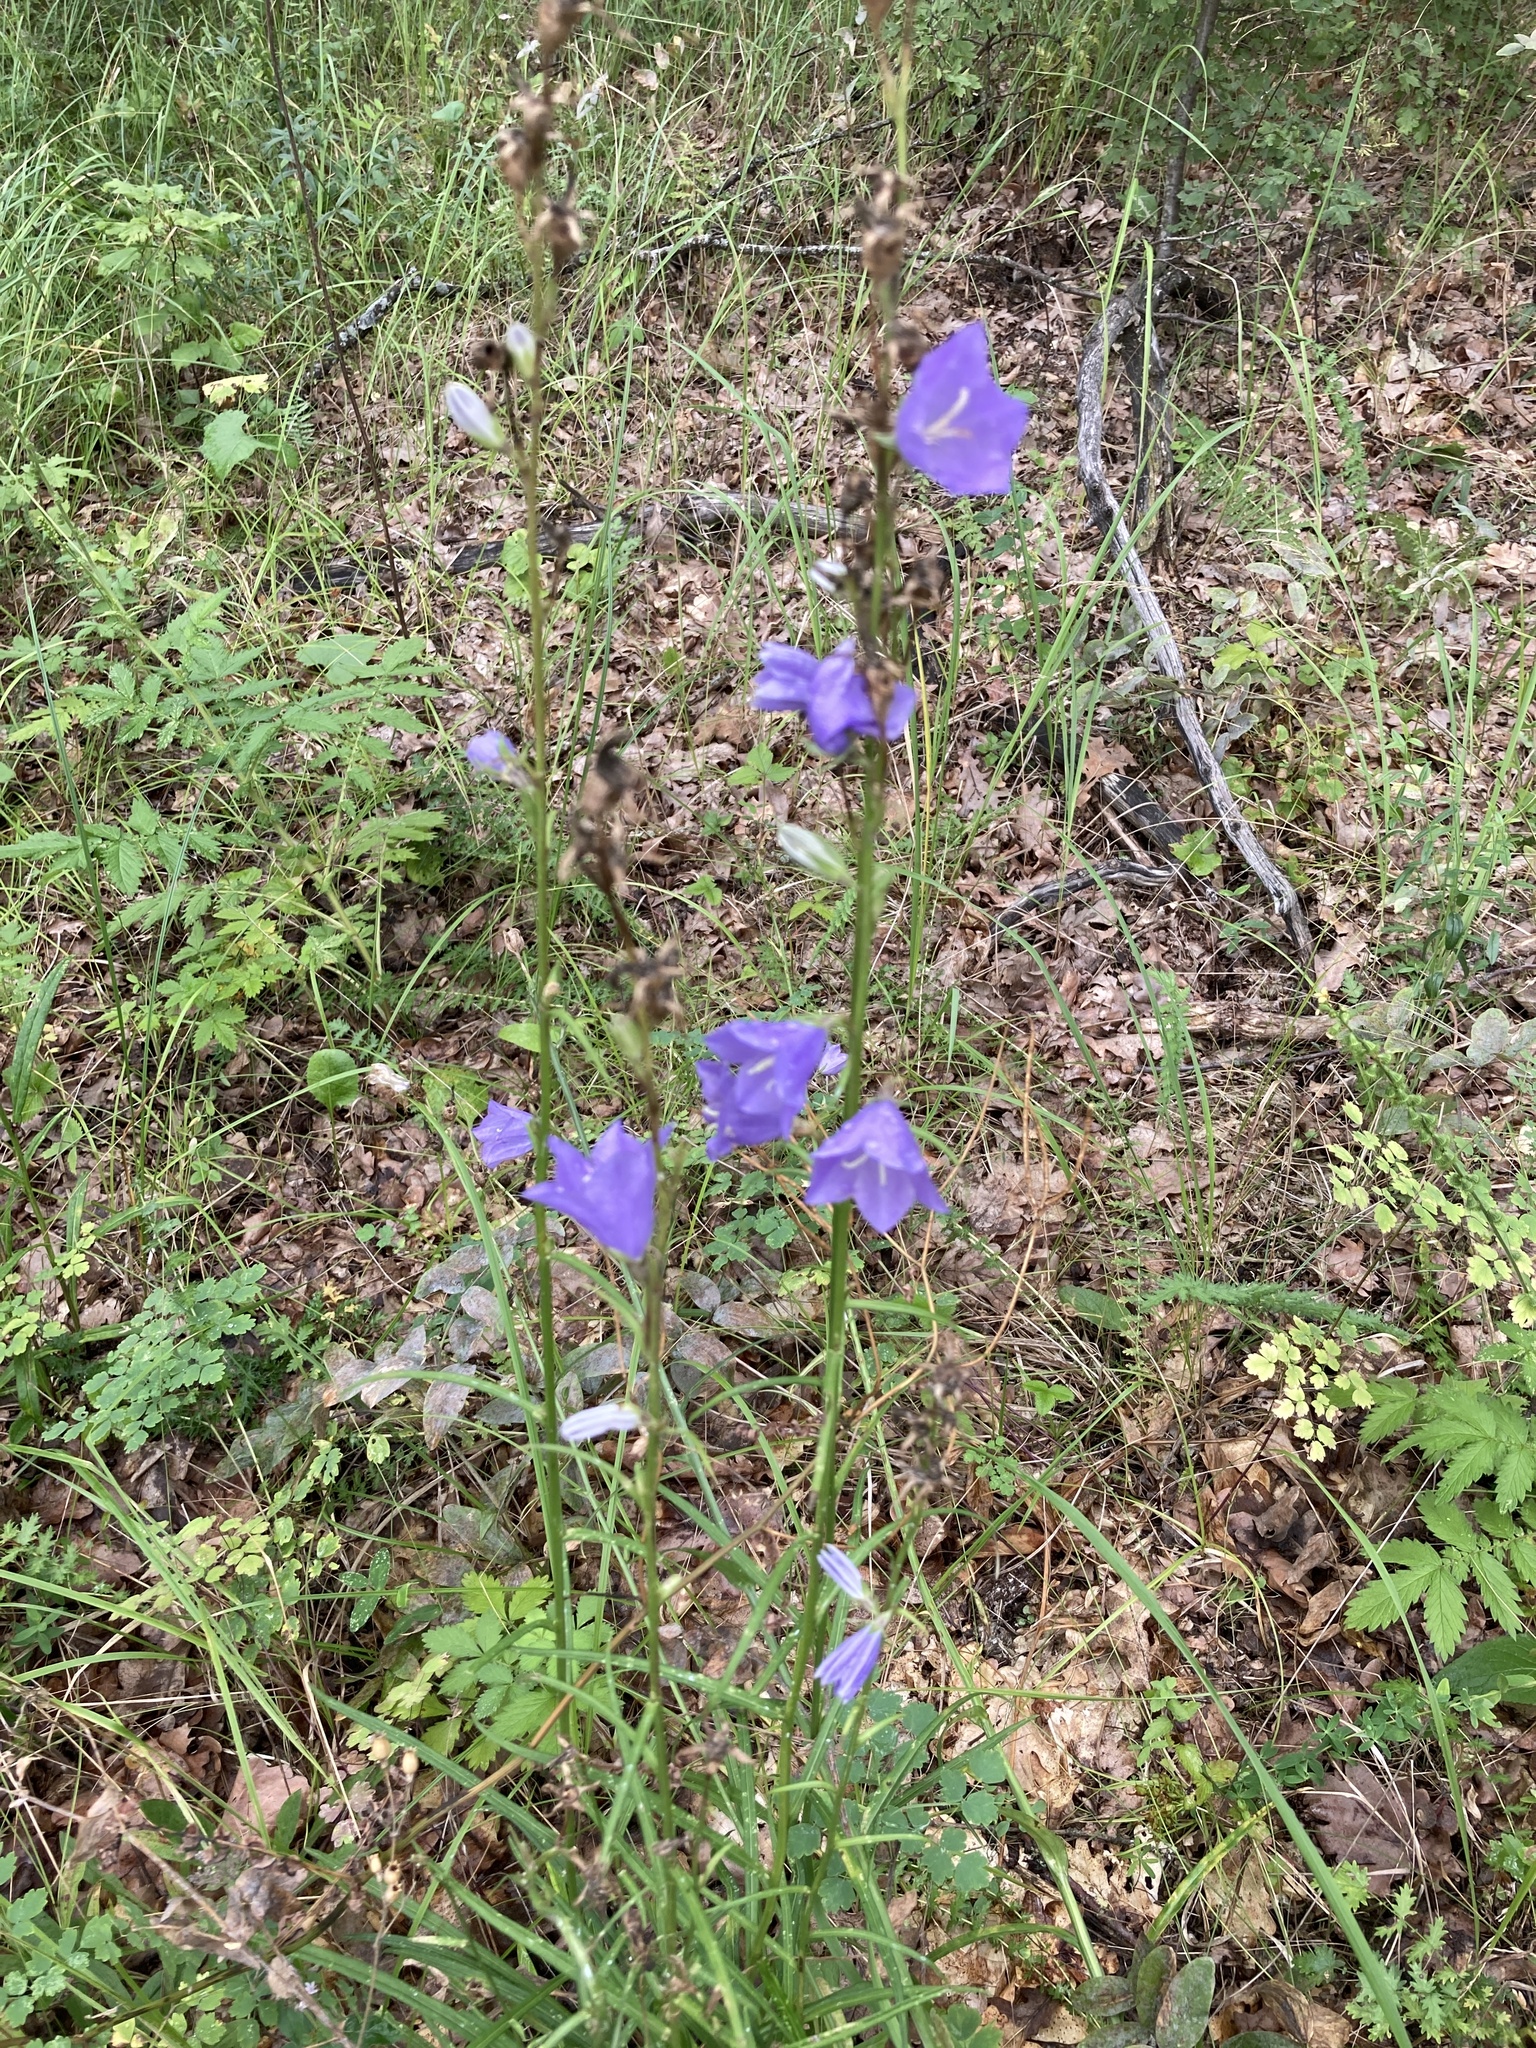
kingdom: Plantae
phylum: Tracheophyta
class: Magnoliopsida
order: Asterales
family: Campanulaceae
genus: Campanula
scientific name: Campanula persicifolia
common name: Peach-leaved bellflower
